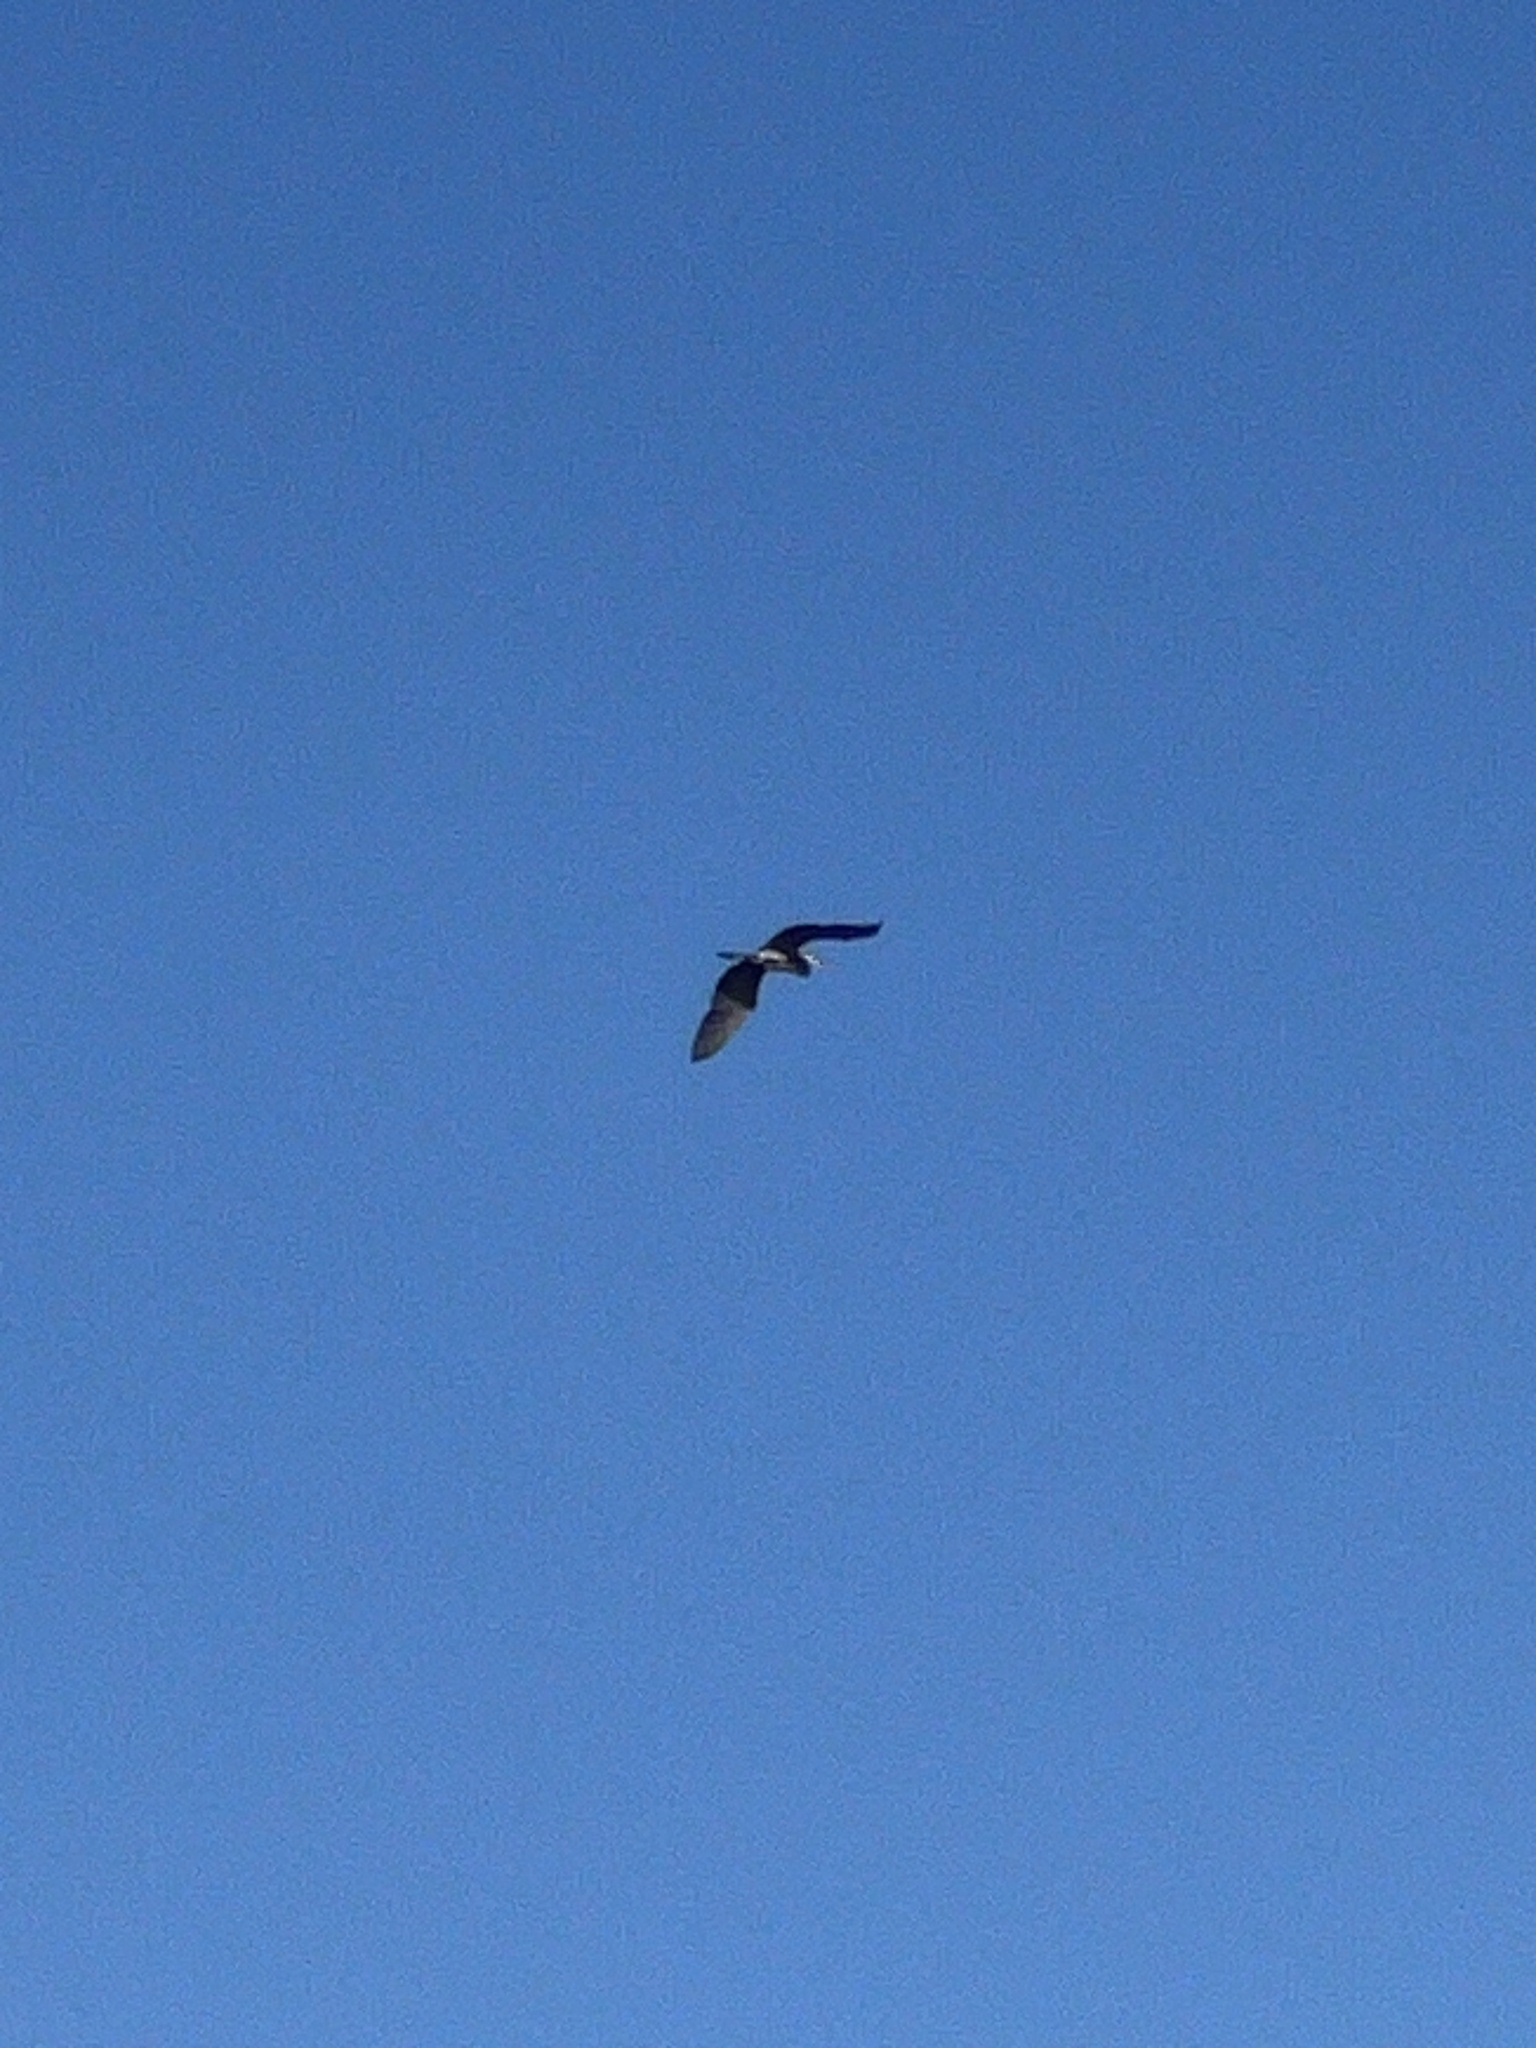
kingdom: Animalia
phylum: Chordata
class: Aves
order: Pelecaniformes
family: Ardeidae
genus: Ardea
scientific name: Ardea herodias
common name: Great blue heron
